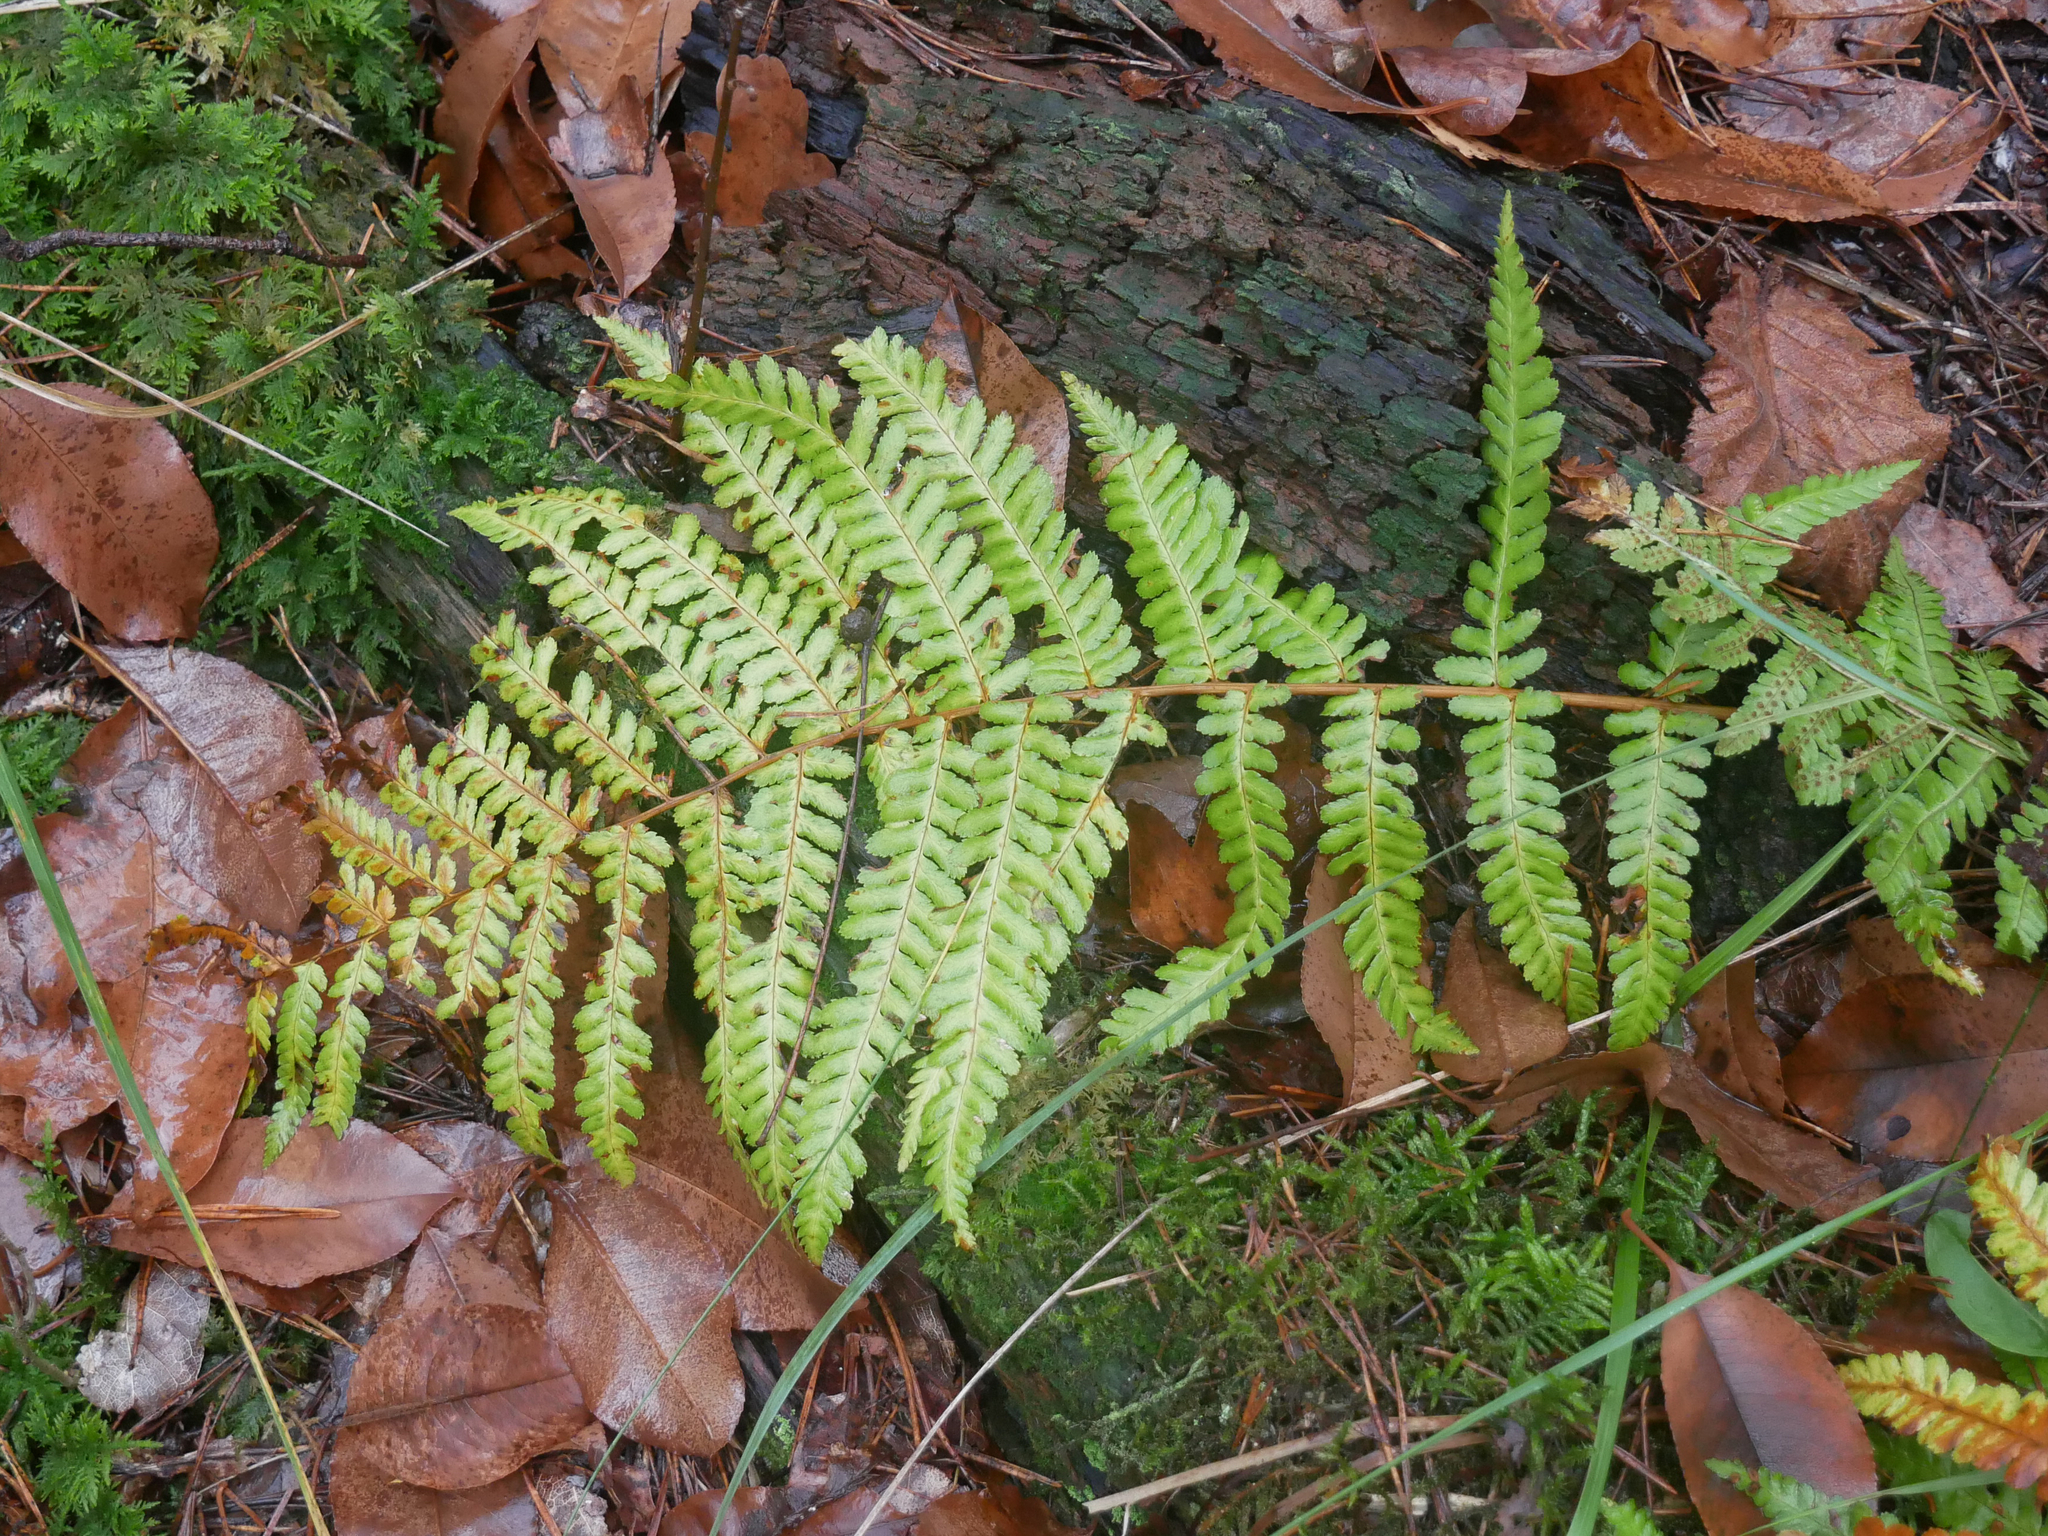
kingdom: Plantae
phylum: Tracheophyta
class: Polypodiopsida
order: Polypodiales
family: Dryopteridaceae
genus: Dryopteris
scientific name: Dryopteris filix-mas
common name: Male fern
